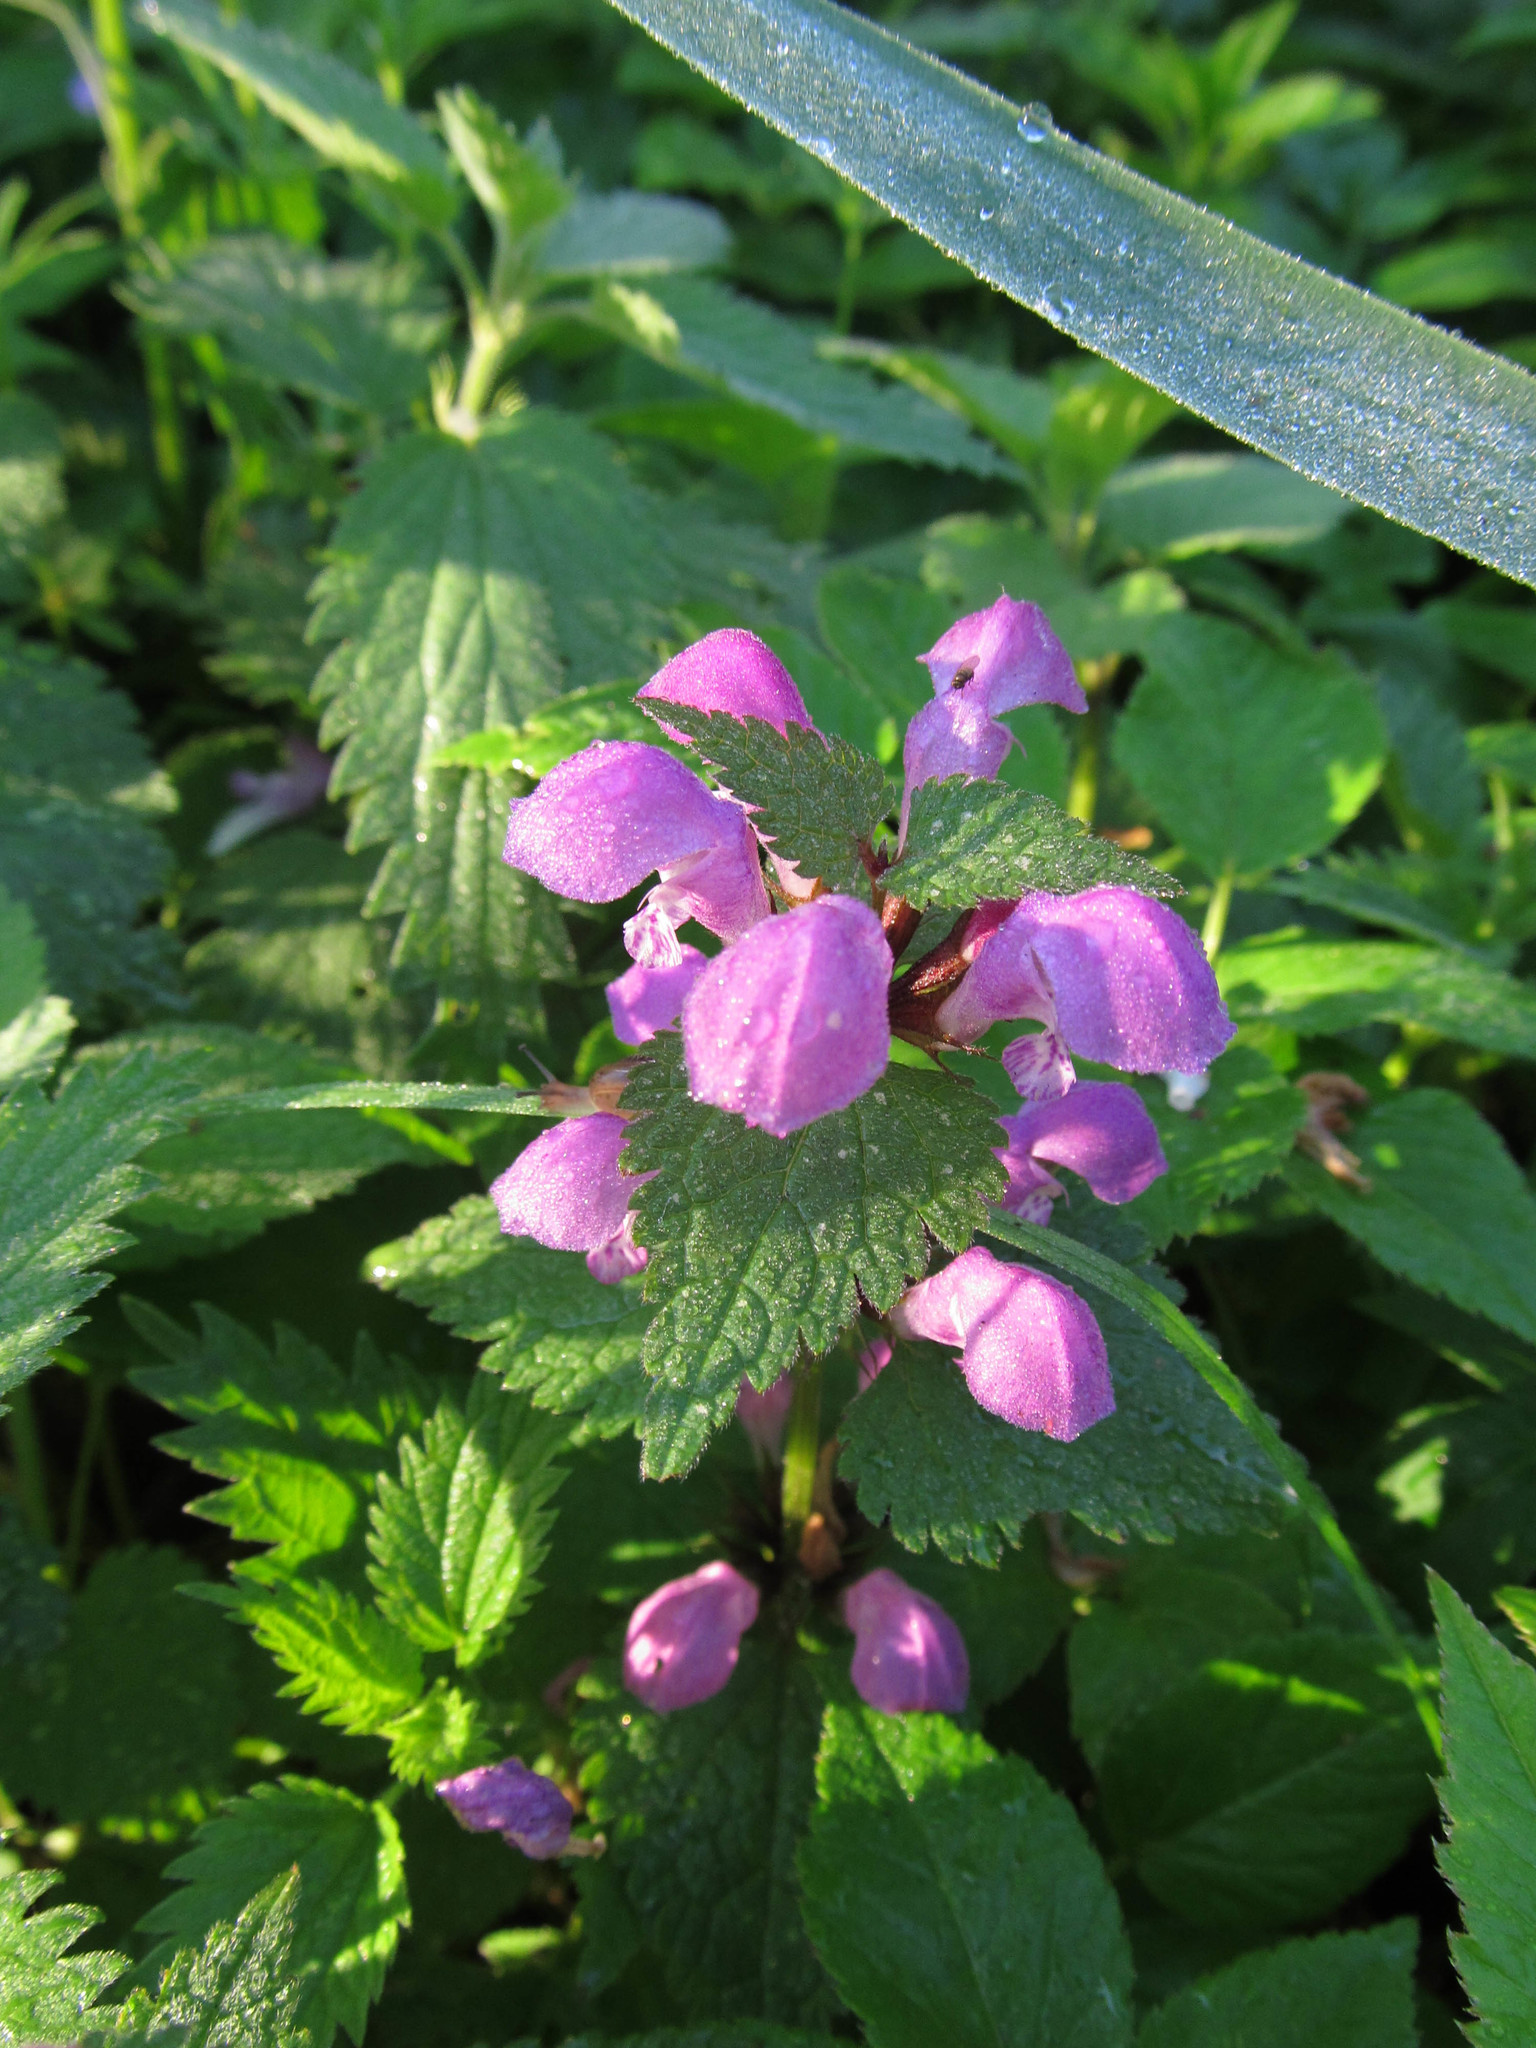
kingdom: Plantae
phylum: Tracheophyta
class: Magnoliopsida
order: Lamiales
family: Lamiaceae
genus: Lamium
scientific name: Lamium maculatum
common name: Spotted dead-nettle
